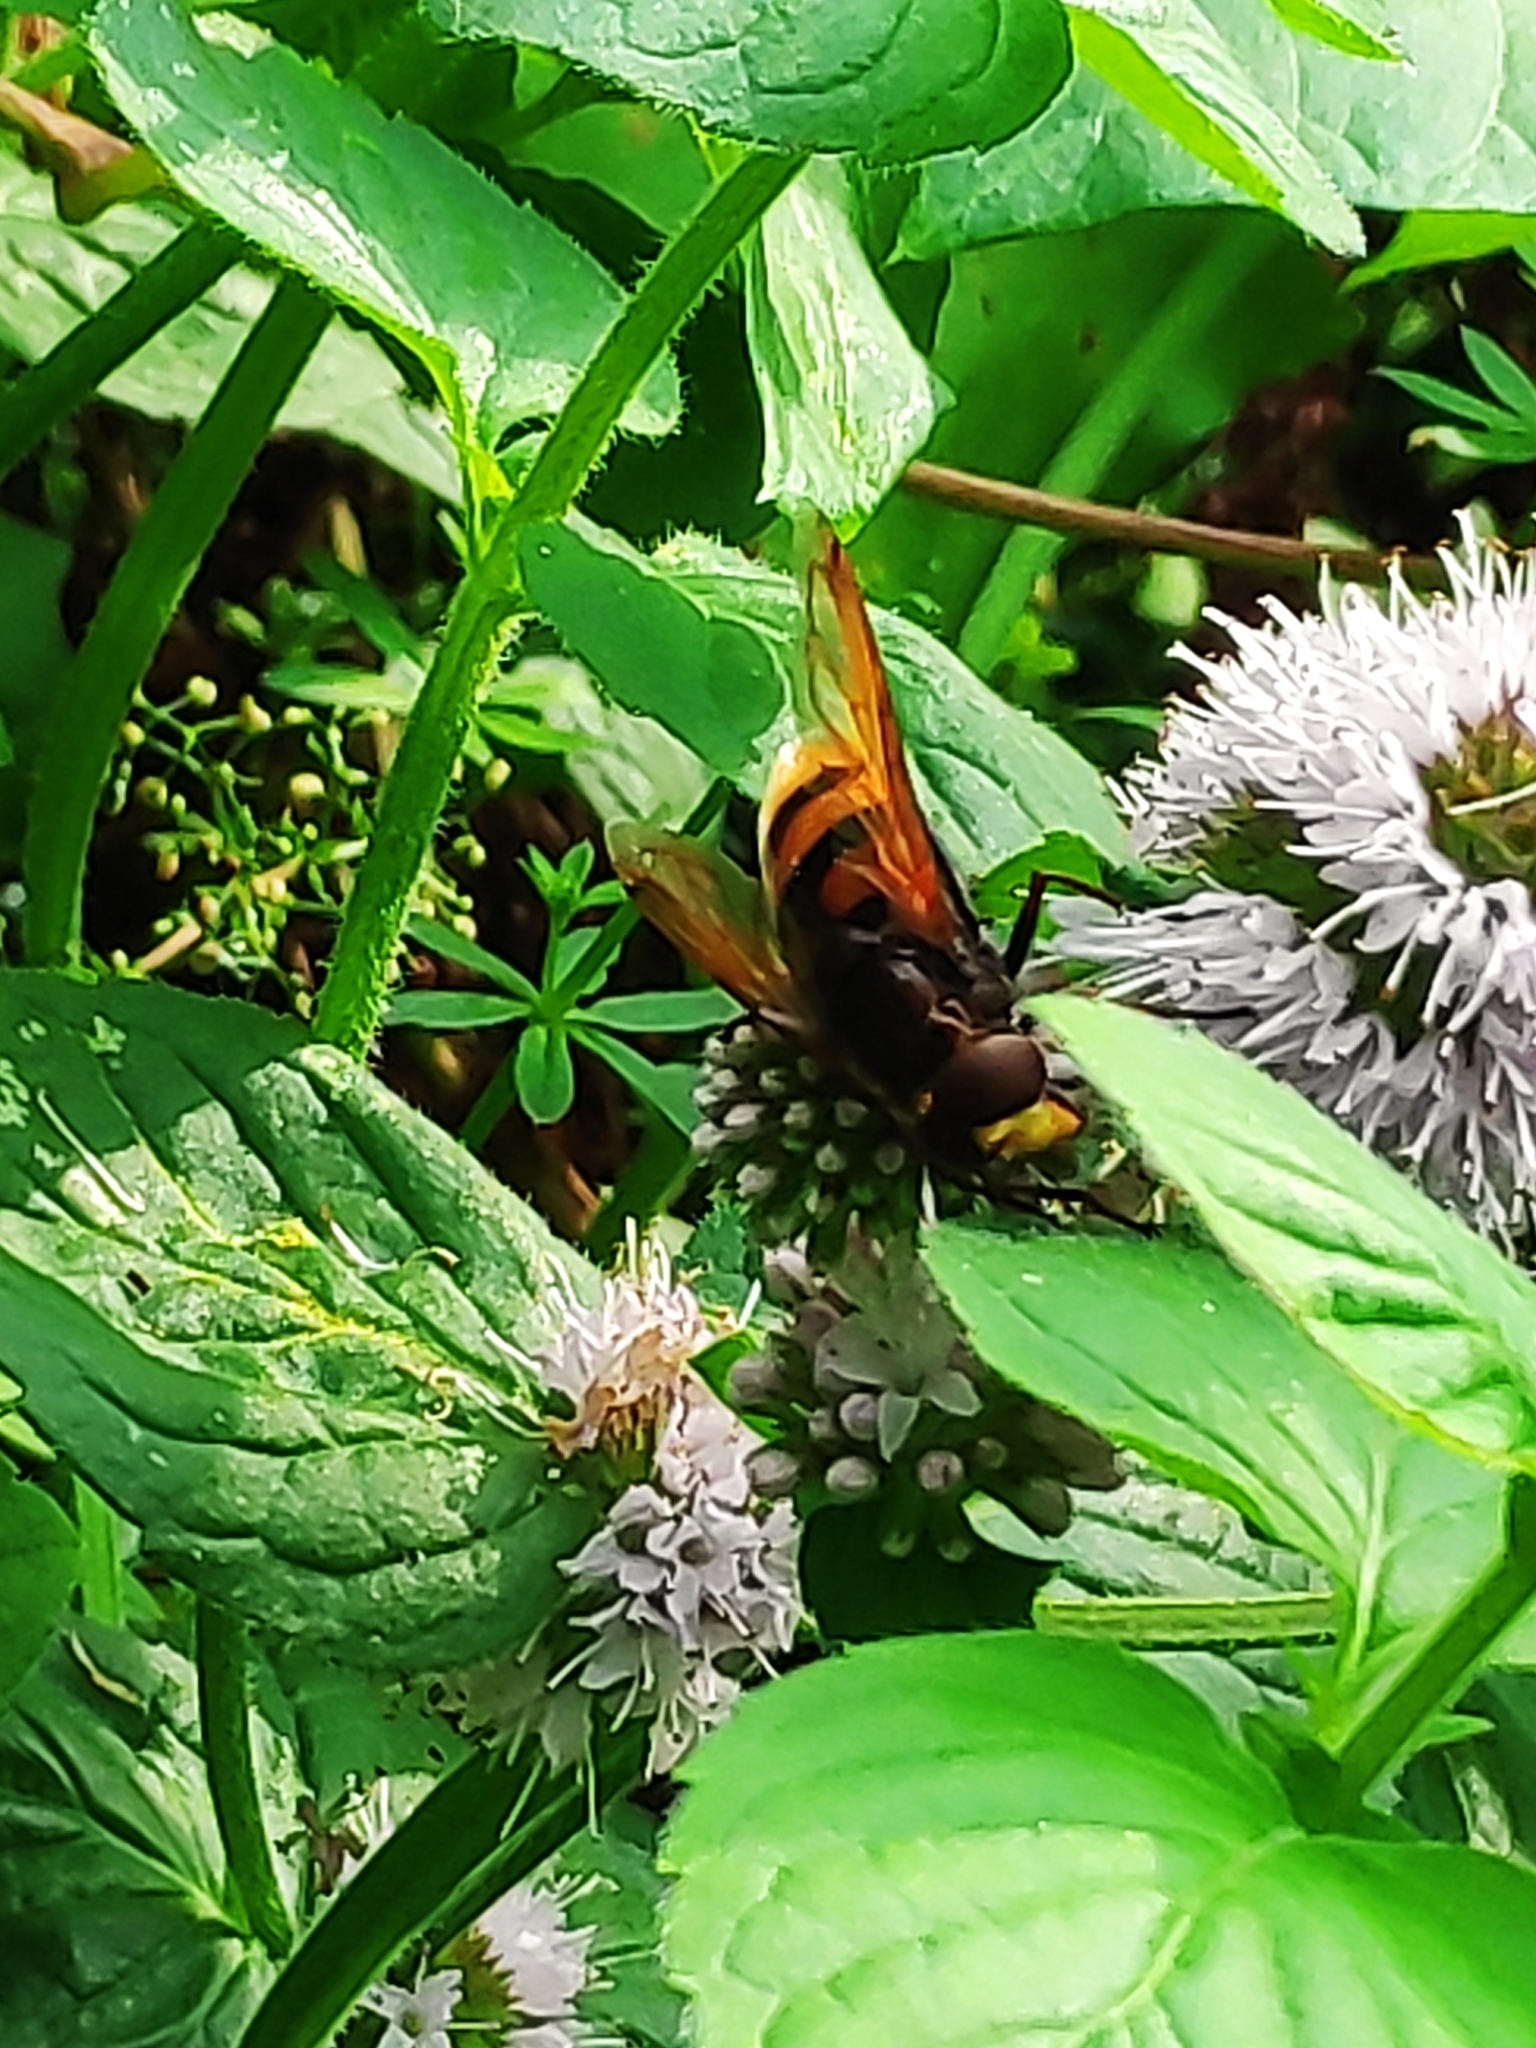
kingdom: Animalia
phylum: Arthropoda
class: Insecta
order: Diptera
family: Syrphidae
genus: Volucella
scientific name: Volucella zonaria
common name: Hornet hoverfly
